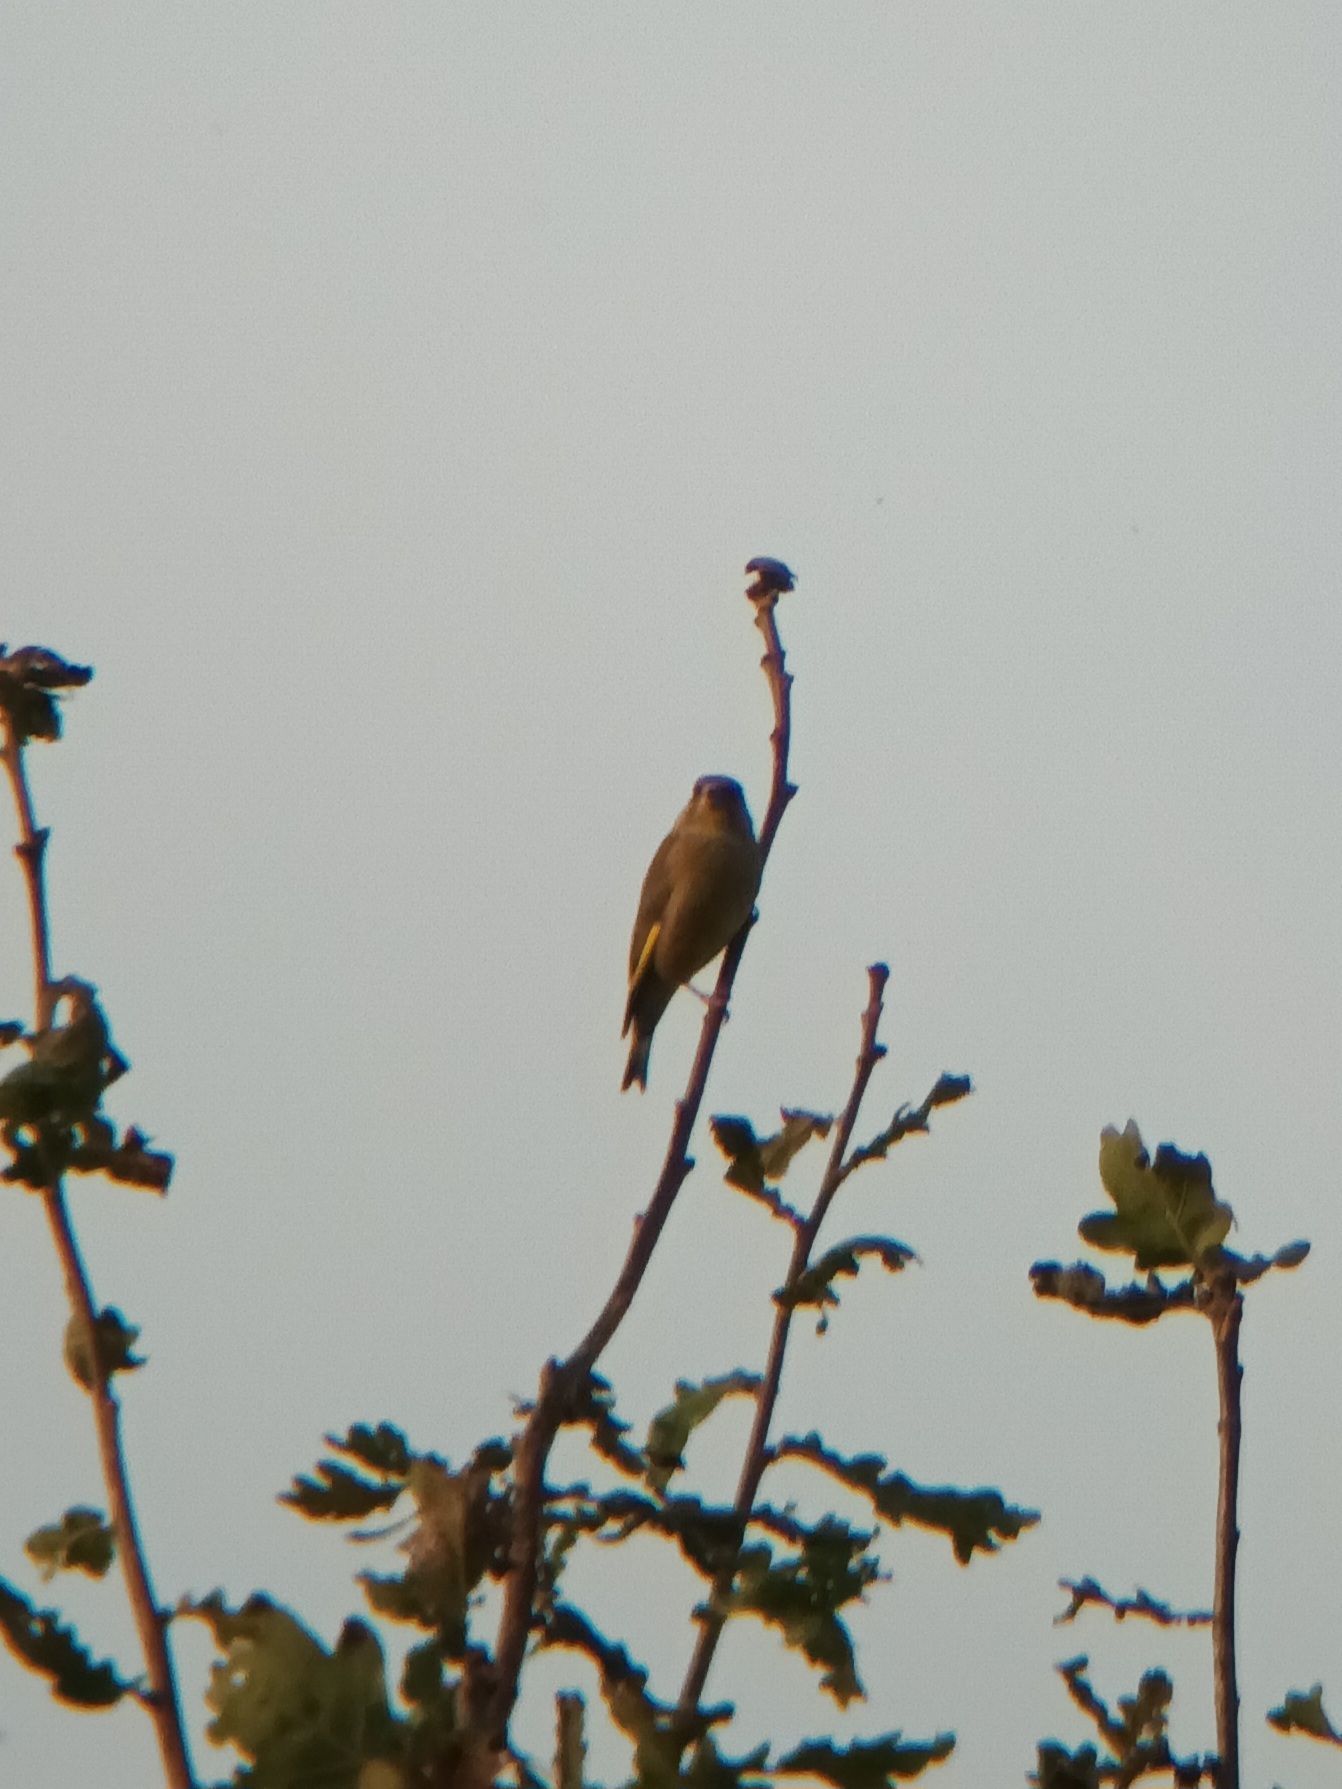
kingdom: Plantae
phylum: Tracheophyta
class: Liliopsida
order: Poales
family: Poaceae
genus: Chloris
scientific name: Chloris chloris
